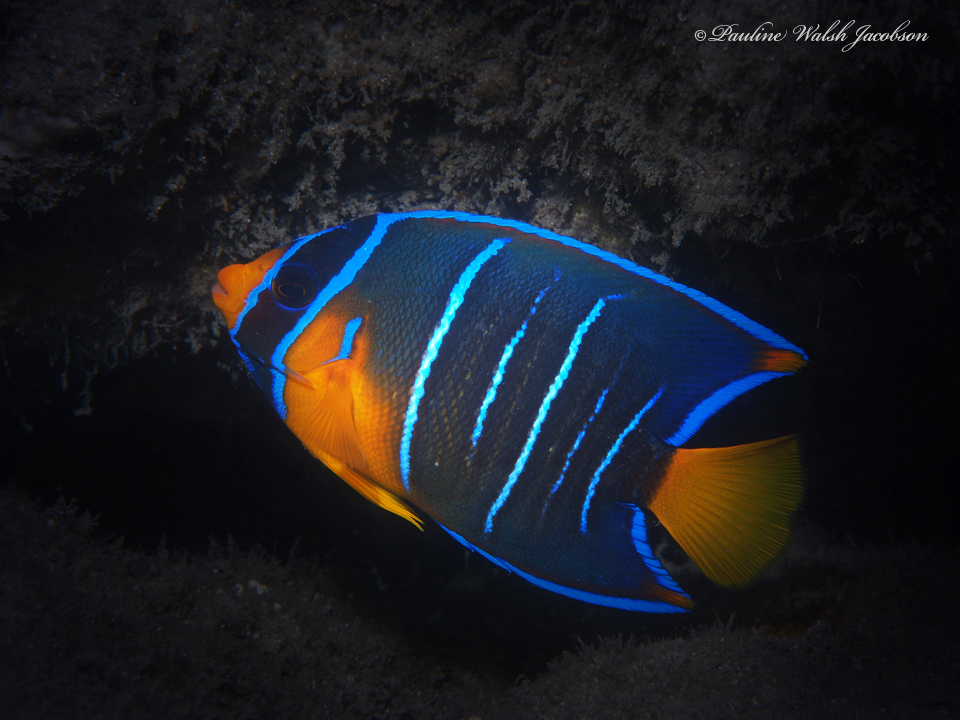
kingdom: Animalia
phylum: Chordata
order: Perciformes
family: Pomacanthidae
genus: Holacanthus
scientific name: Holacanthus bermudensis
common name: Blue angelfish
